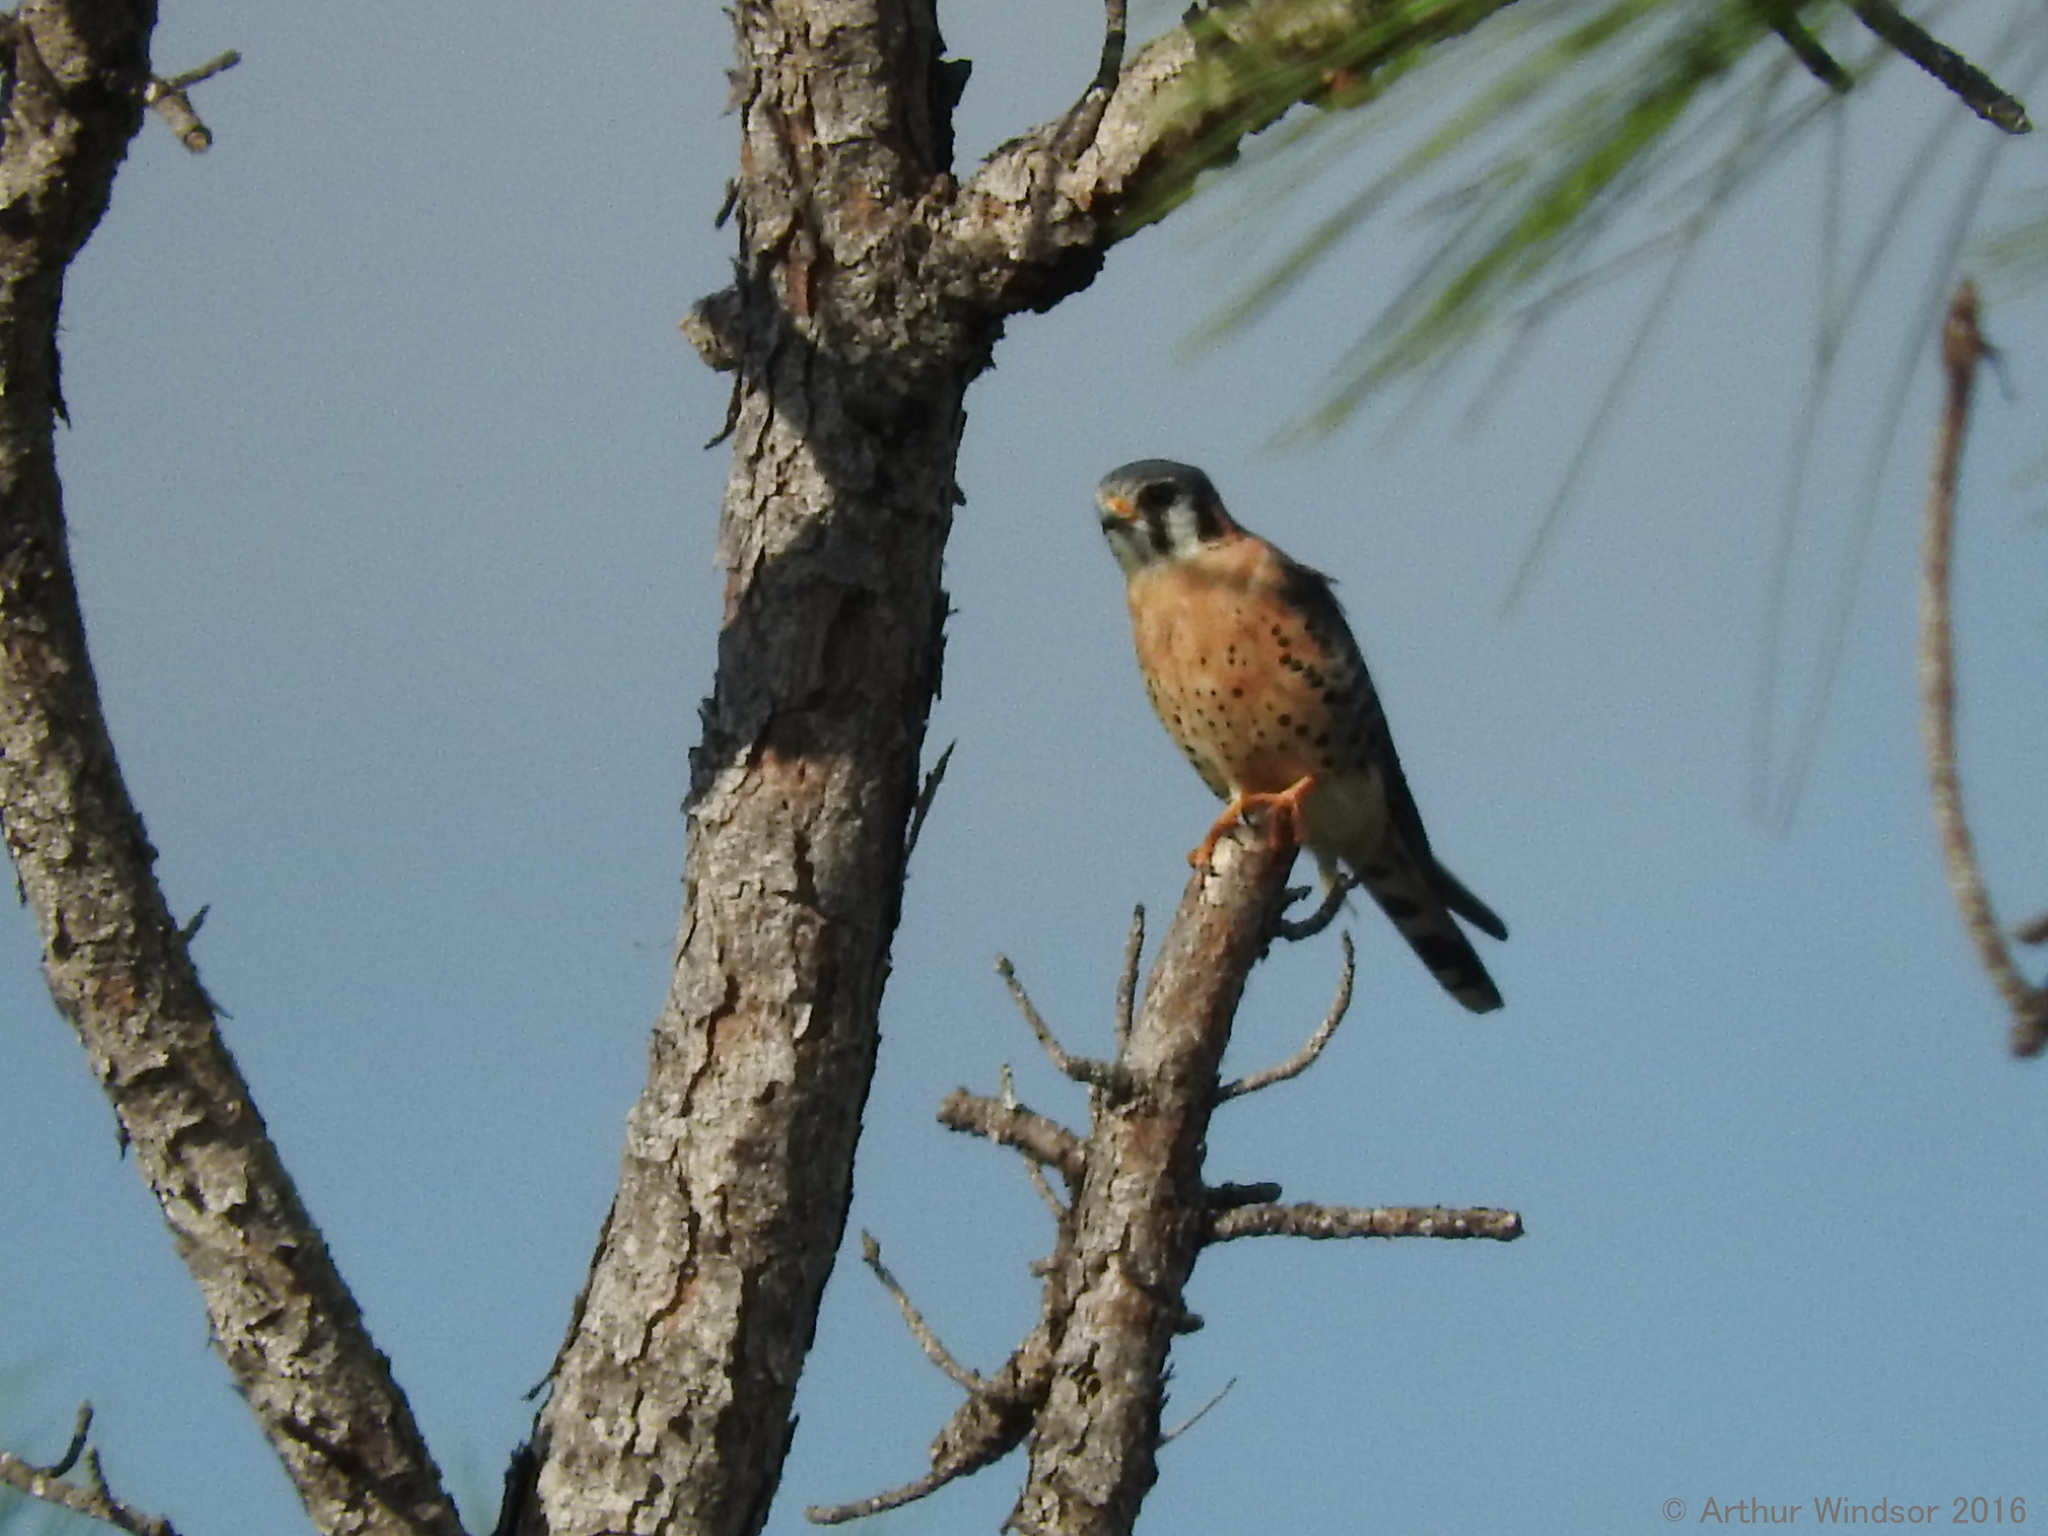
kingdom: Animalia
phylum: Chordata
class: Aves
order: Falconiformes
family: Falconidae
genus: Falco
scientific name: Falco sparverius
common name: American kestrel
